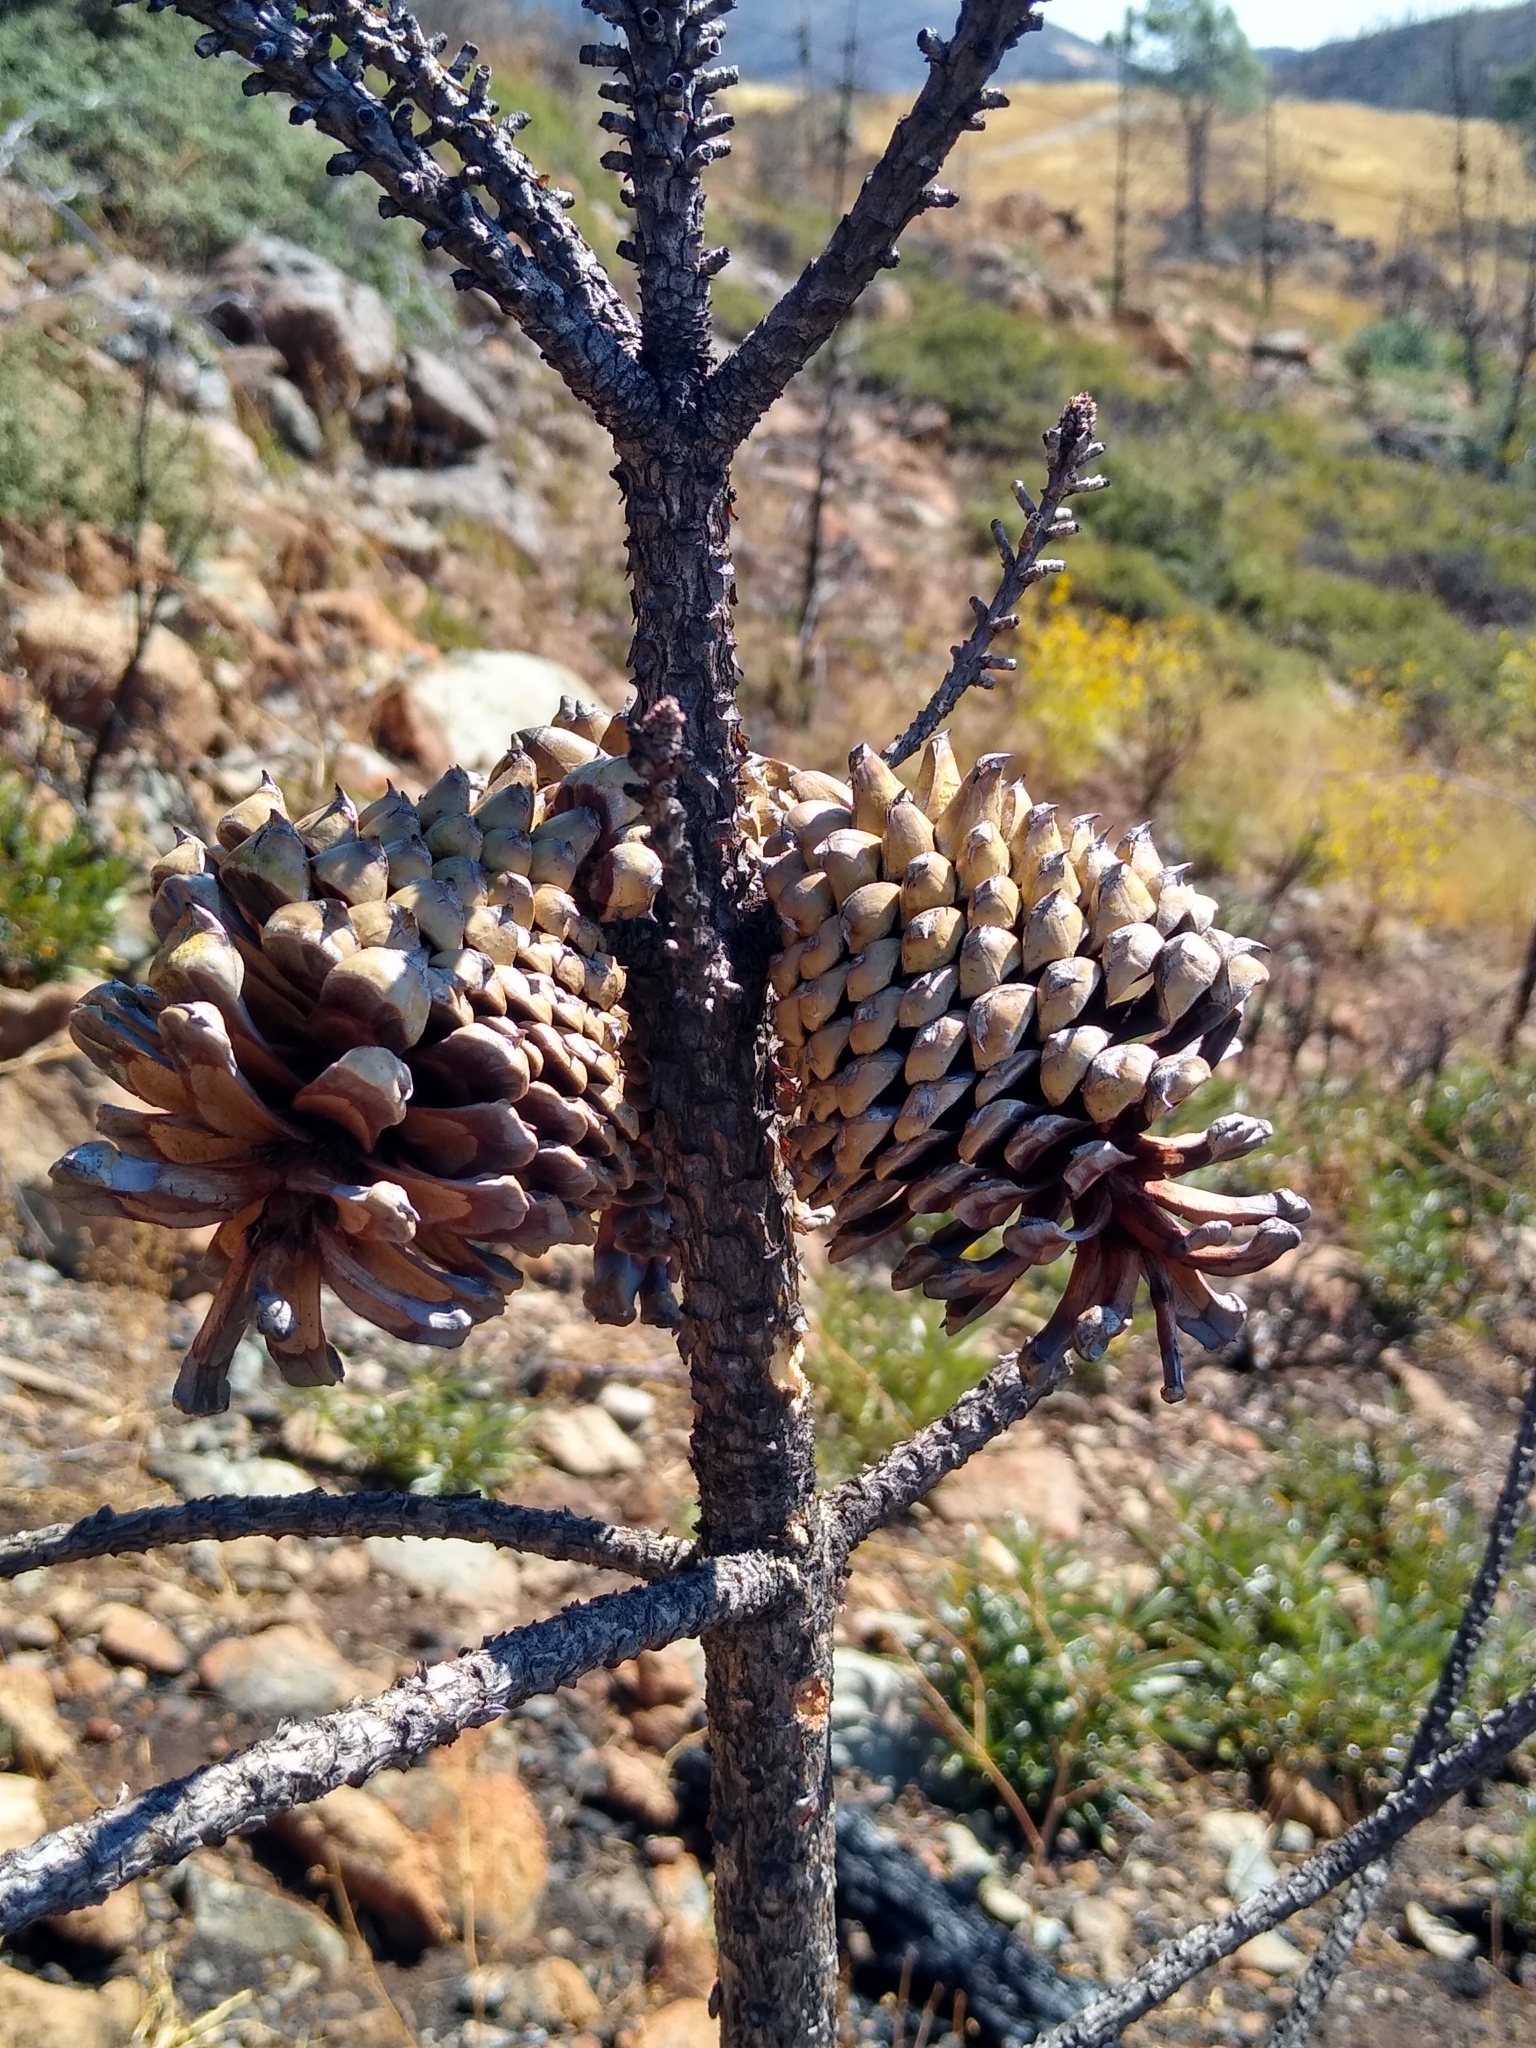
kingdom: Plantae
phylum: Tracheophyta
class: Pinopsida
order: Pinales
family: Pinaceae
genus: Pinus
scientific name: Pinus attenuata
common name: Knobcone pine
